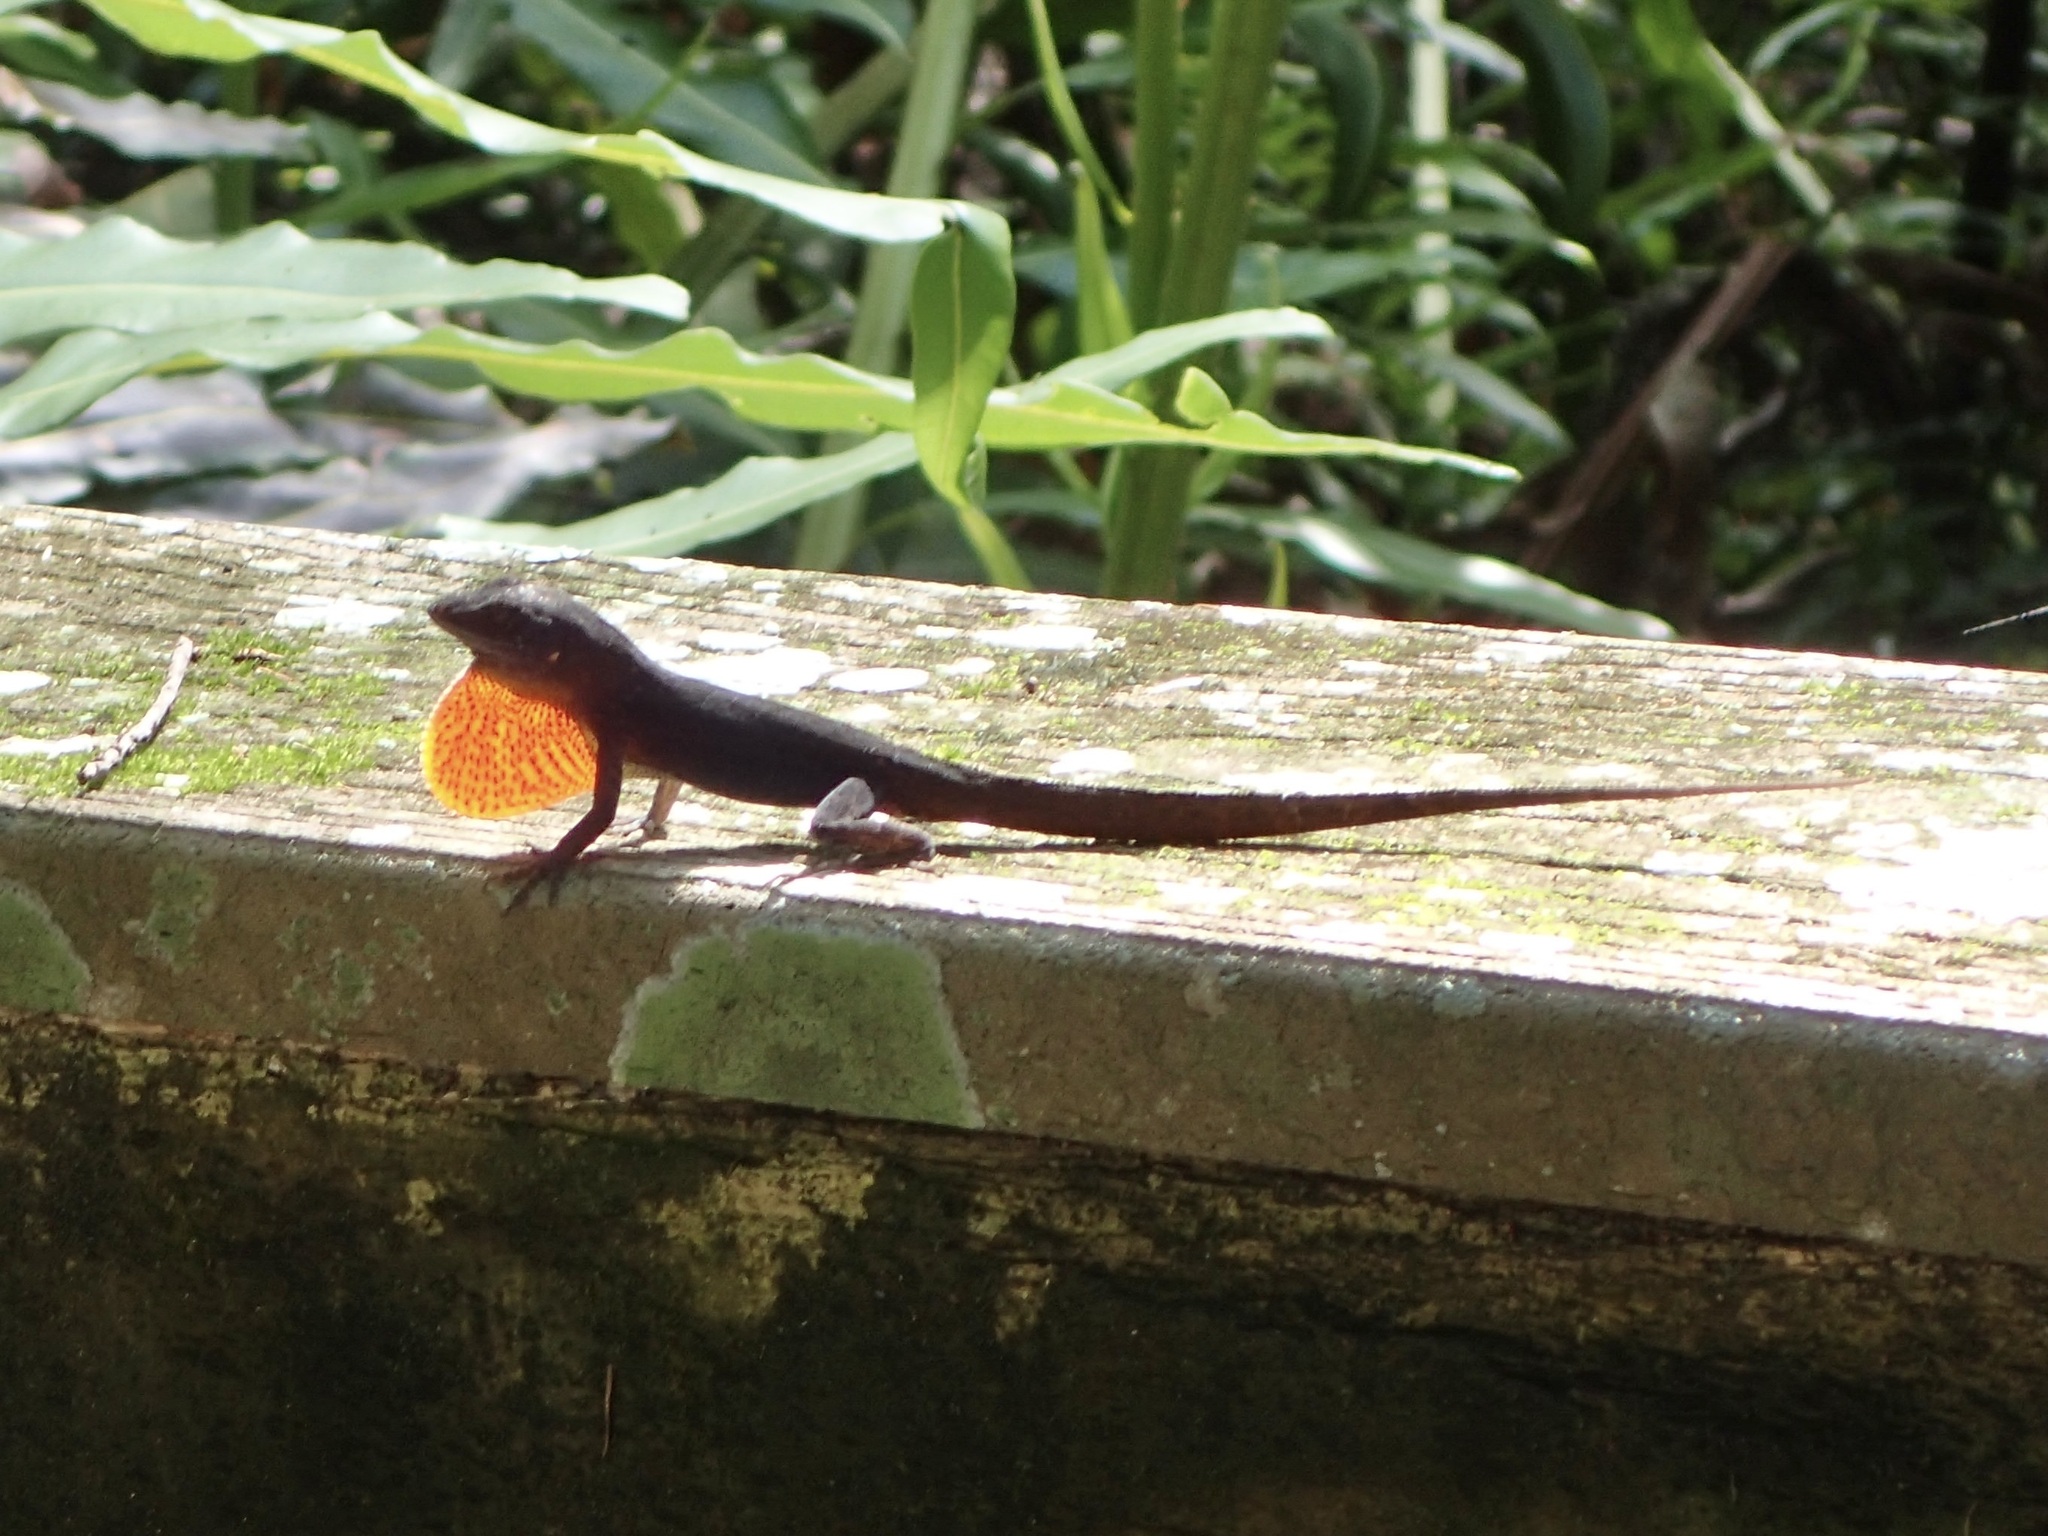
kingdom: Animalia
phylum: Chordata
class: Squamata
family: Dactyloidae
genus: Anolis
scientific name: Anolis sagrei
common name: Brown anole
